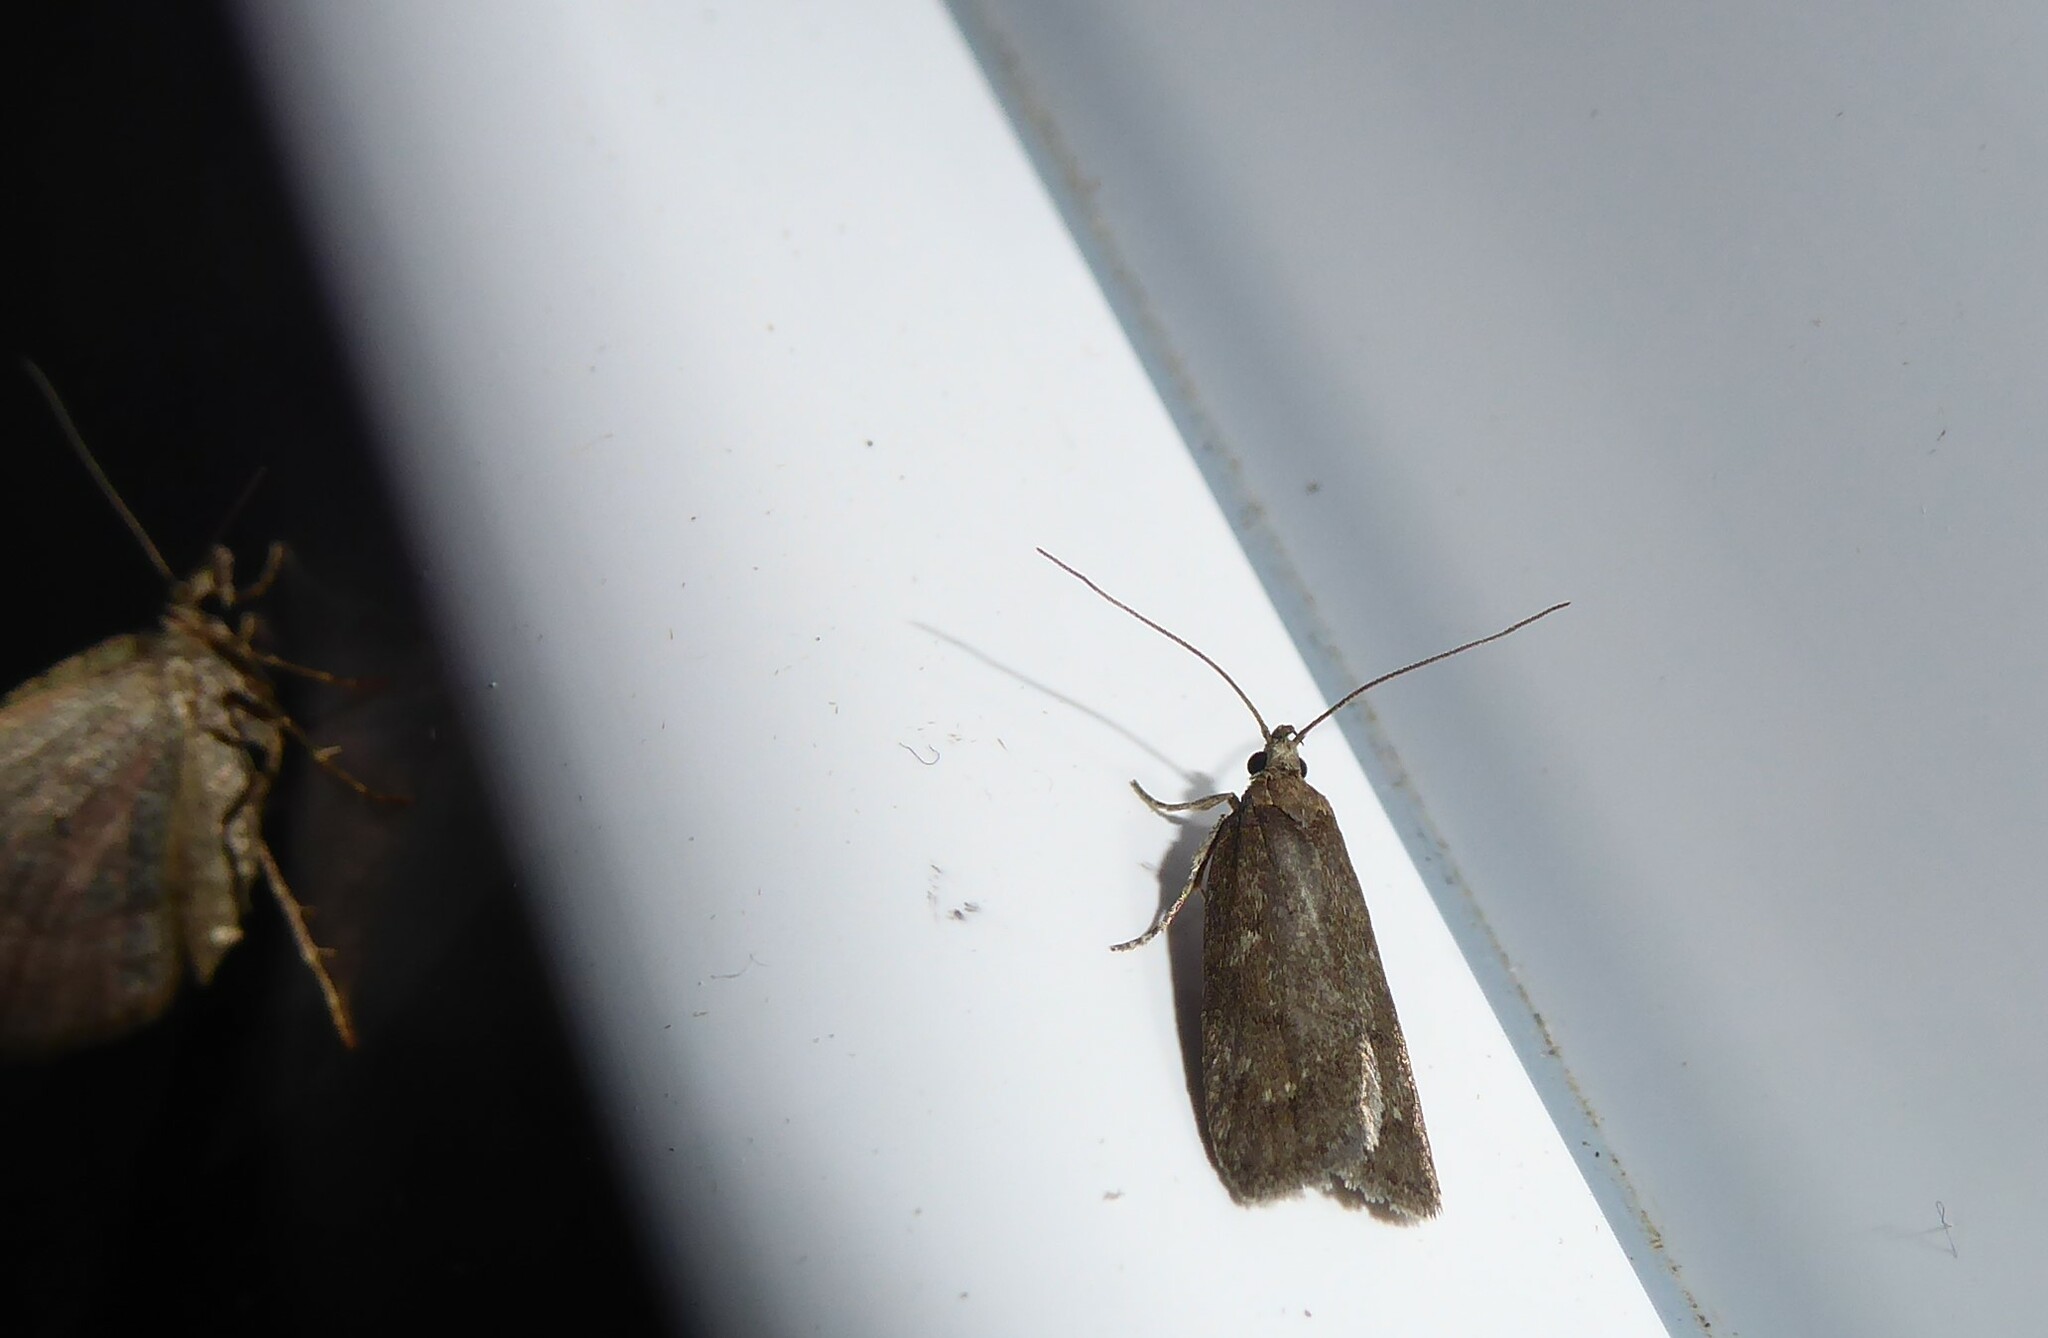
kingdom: Animalia
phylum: Arthropoda
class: Insecta
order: Lepidoptera
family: Depressariidae
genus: Phaeosaces
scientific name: Phaeosaces apocrypta
